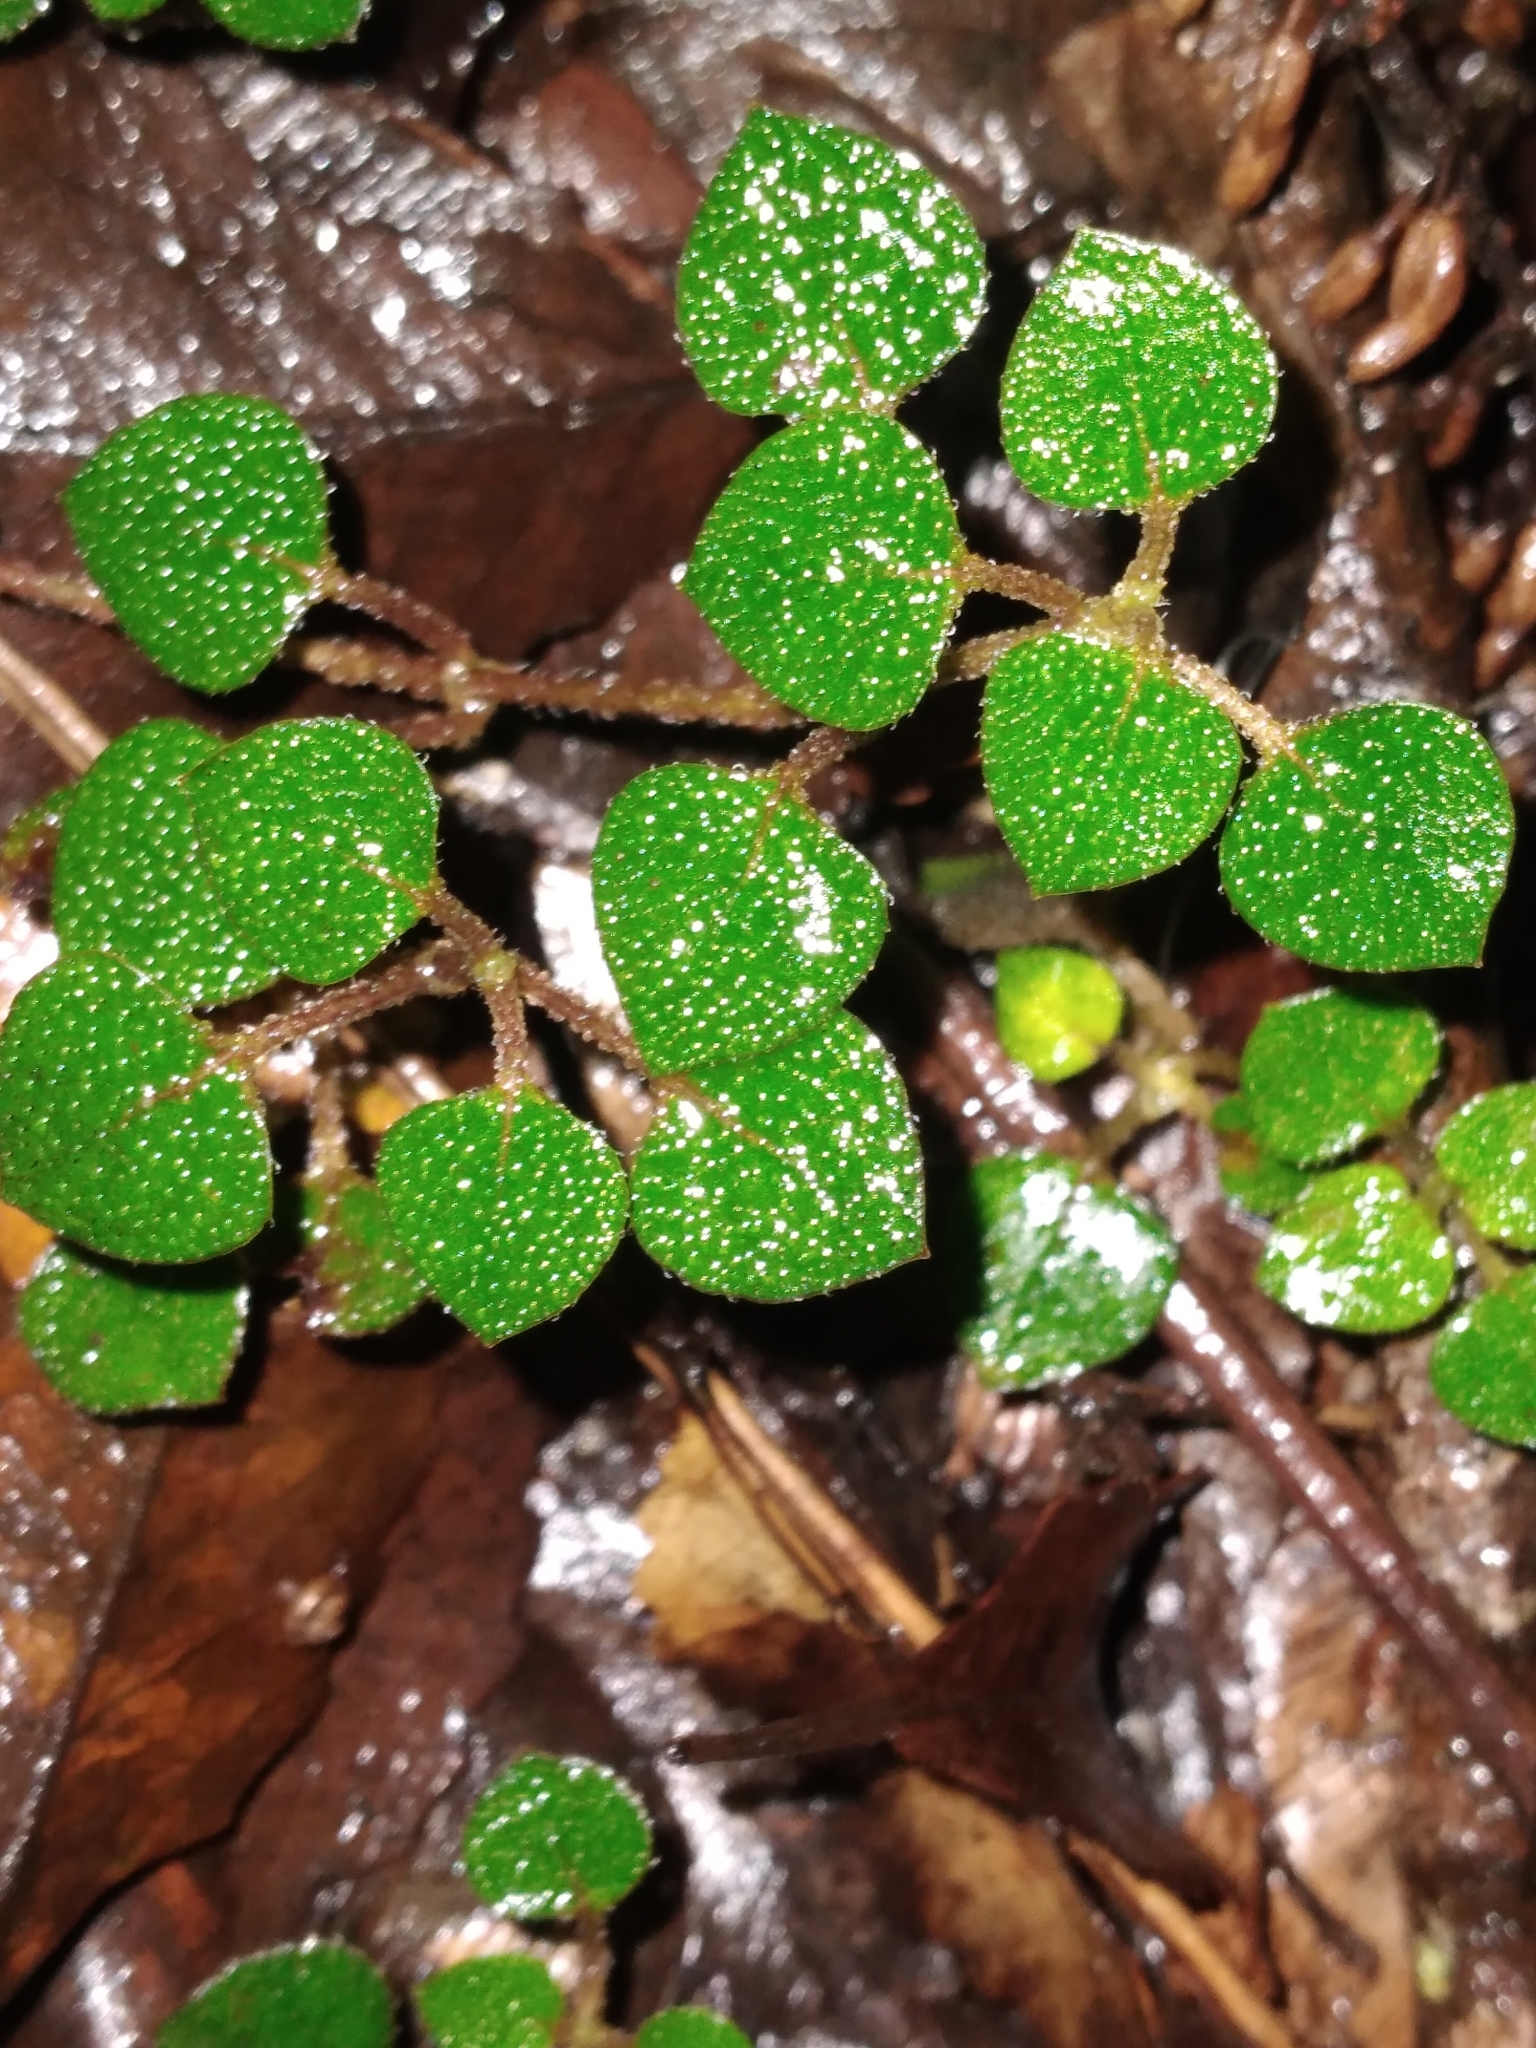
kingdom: Plantae
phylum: Tracheophyta
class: Magnoliopsida
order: Gentianales
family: Rubiaceae
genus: Nertera
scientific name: Nertera dichondrifolia
